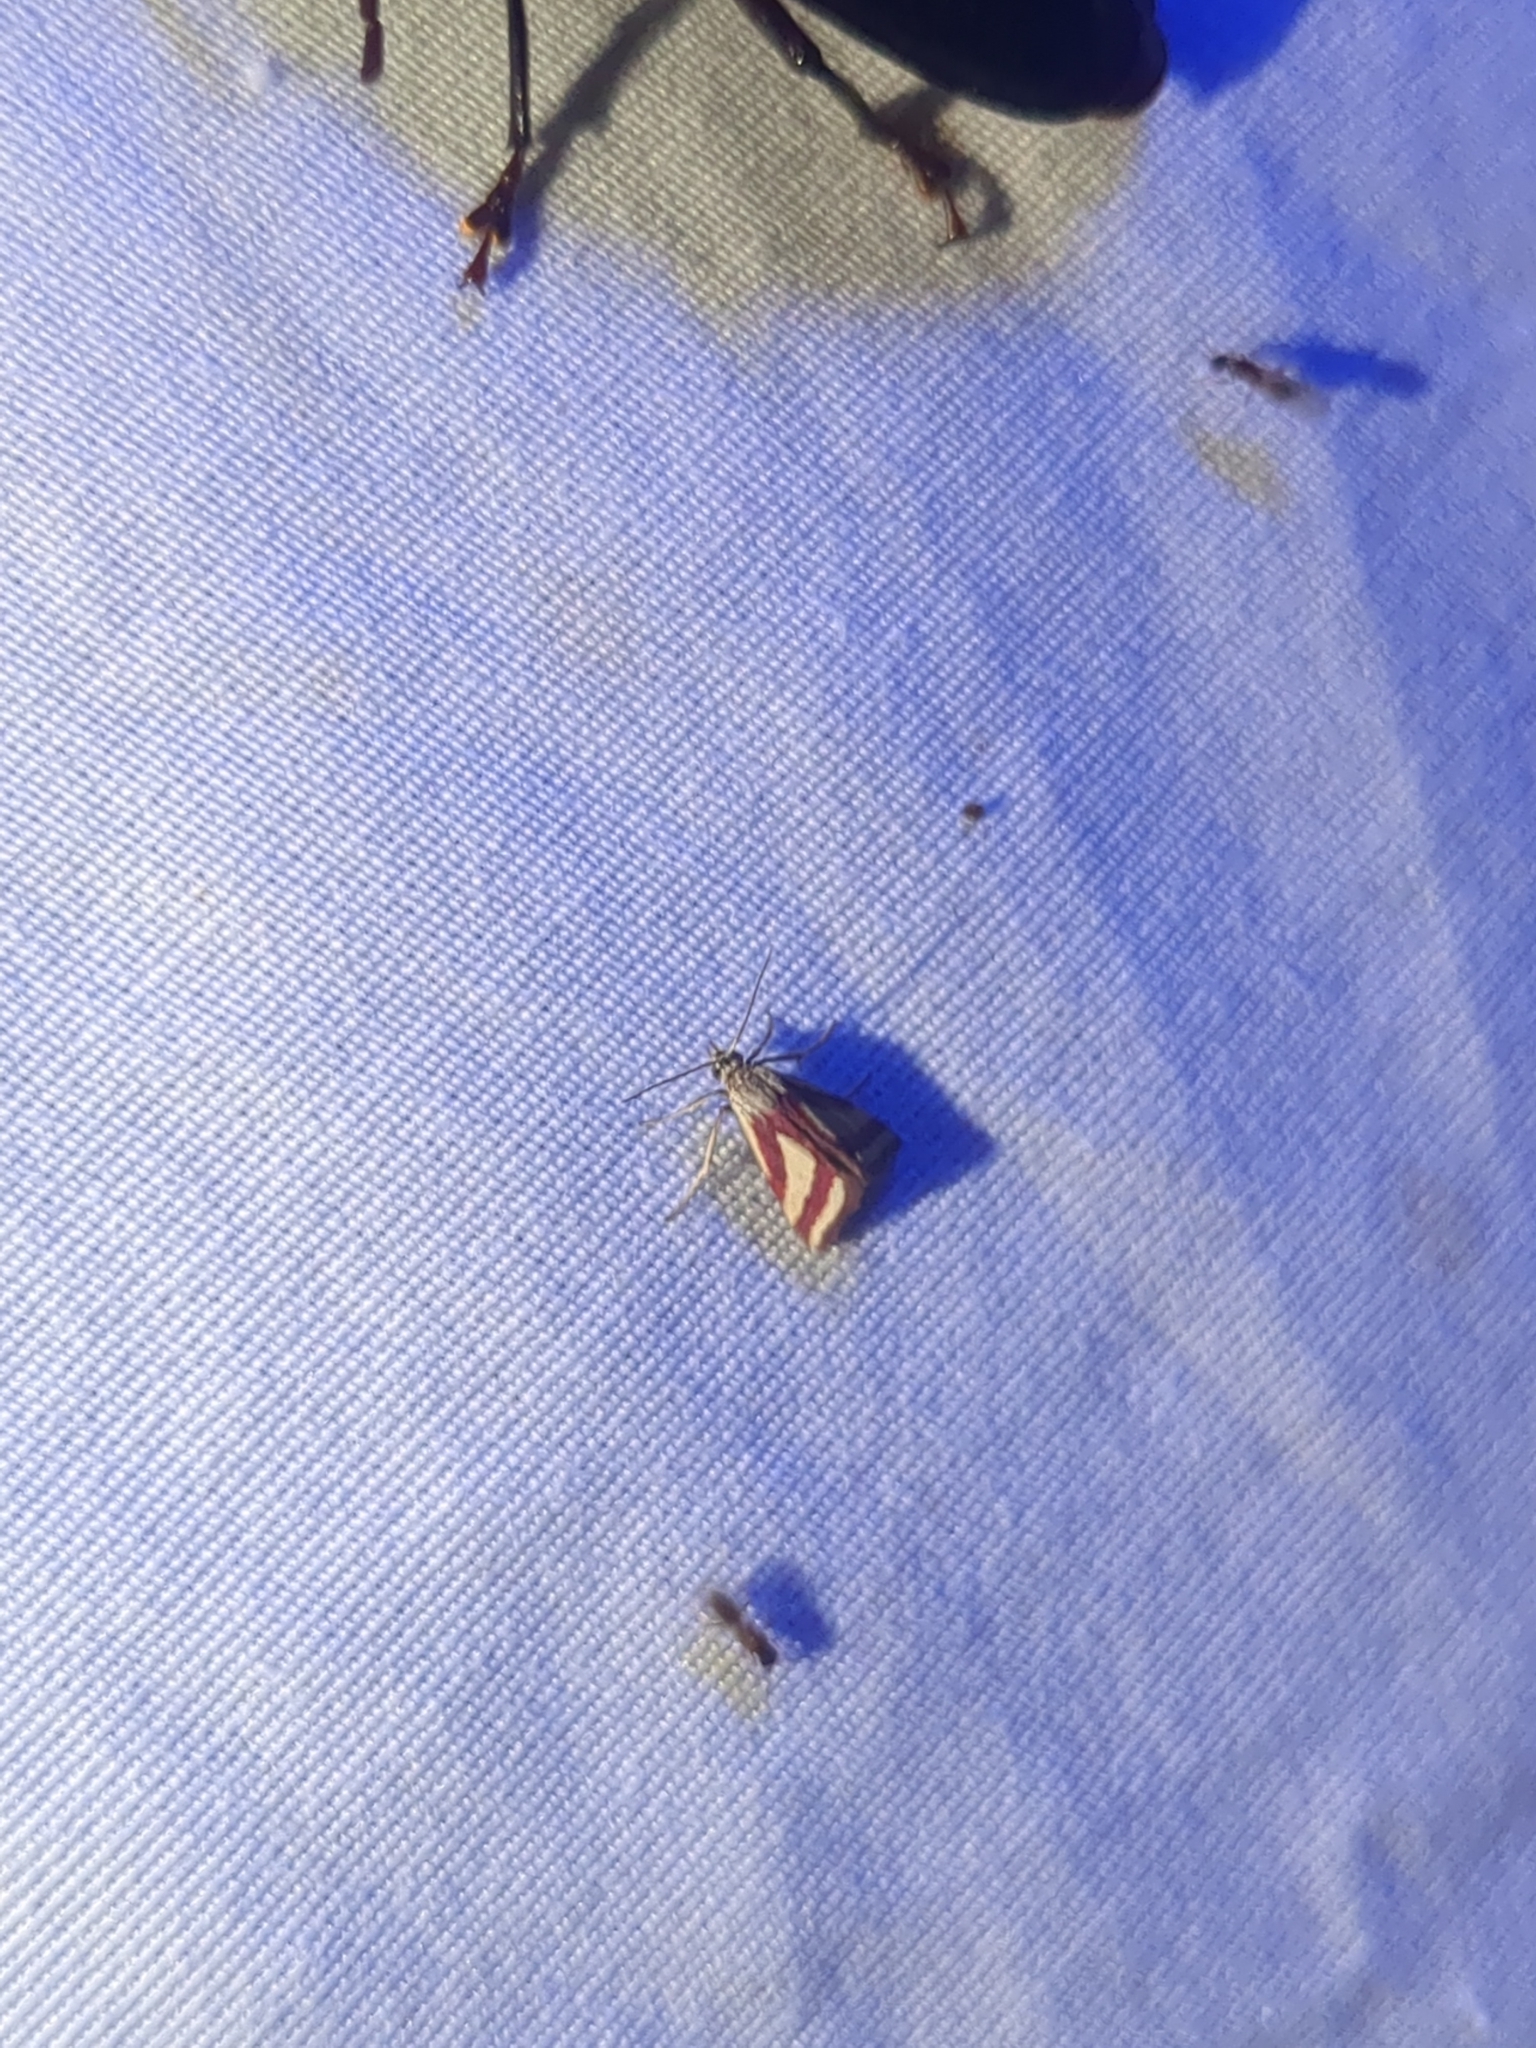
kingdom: Animalia
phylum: Arthropoda
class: Insecta
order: Lepidoptera
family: Crambidae
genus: Microtheoris
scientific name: Microtheoris vibicalis
